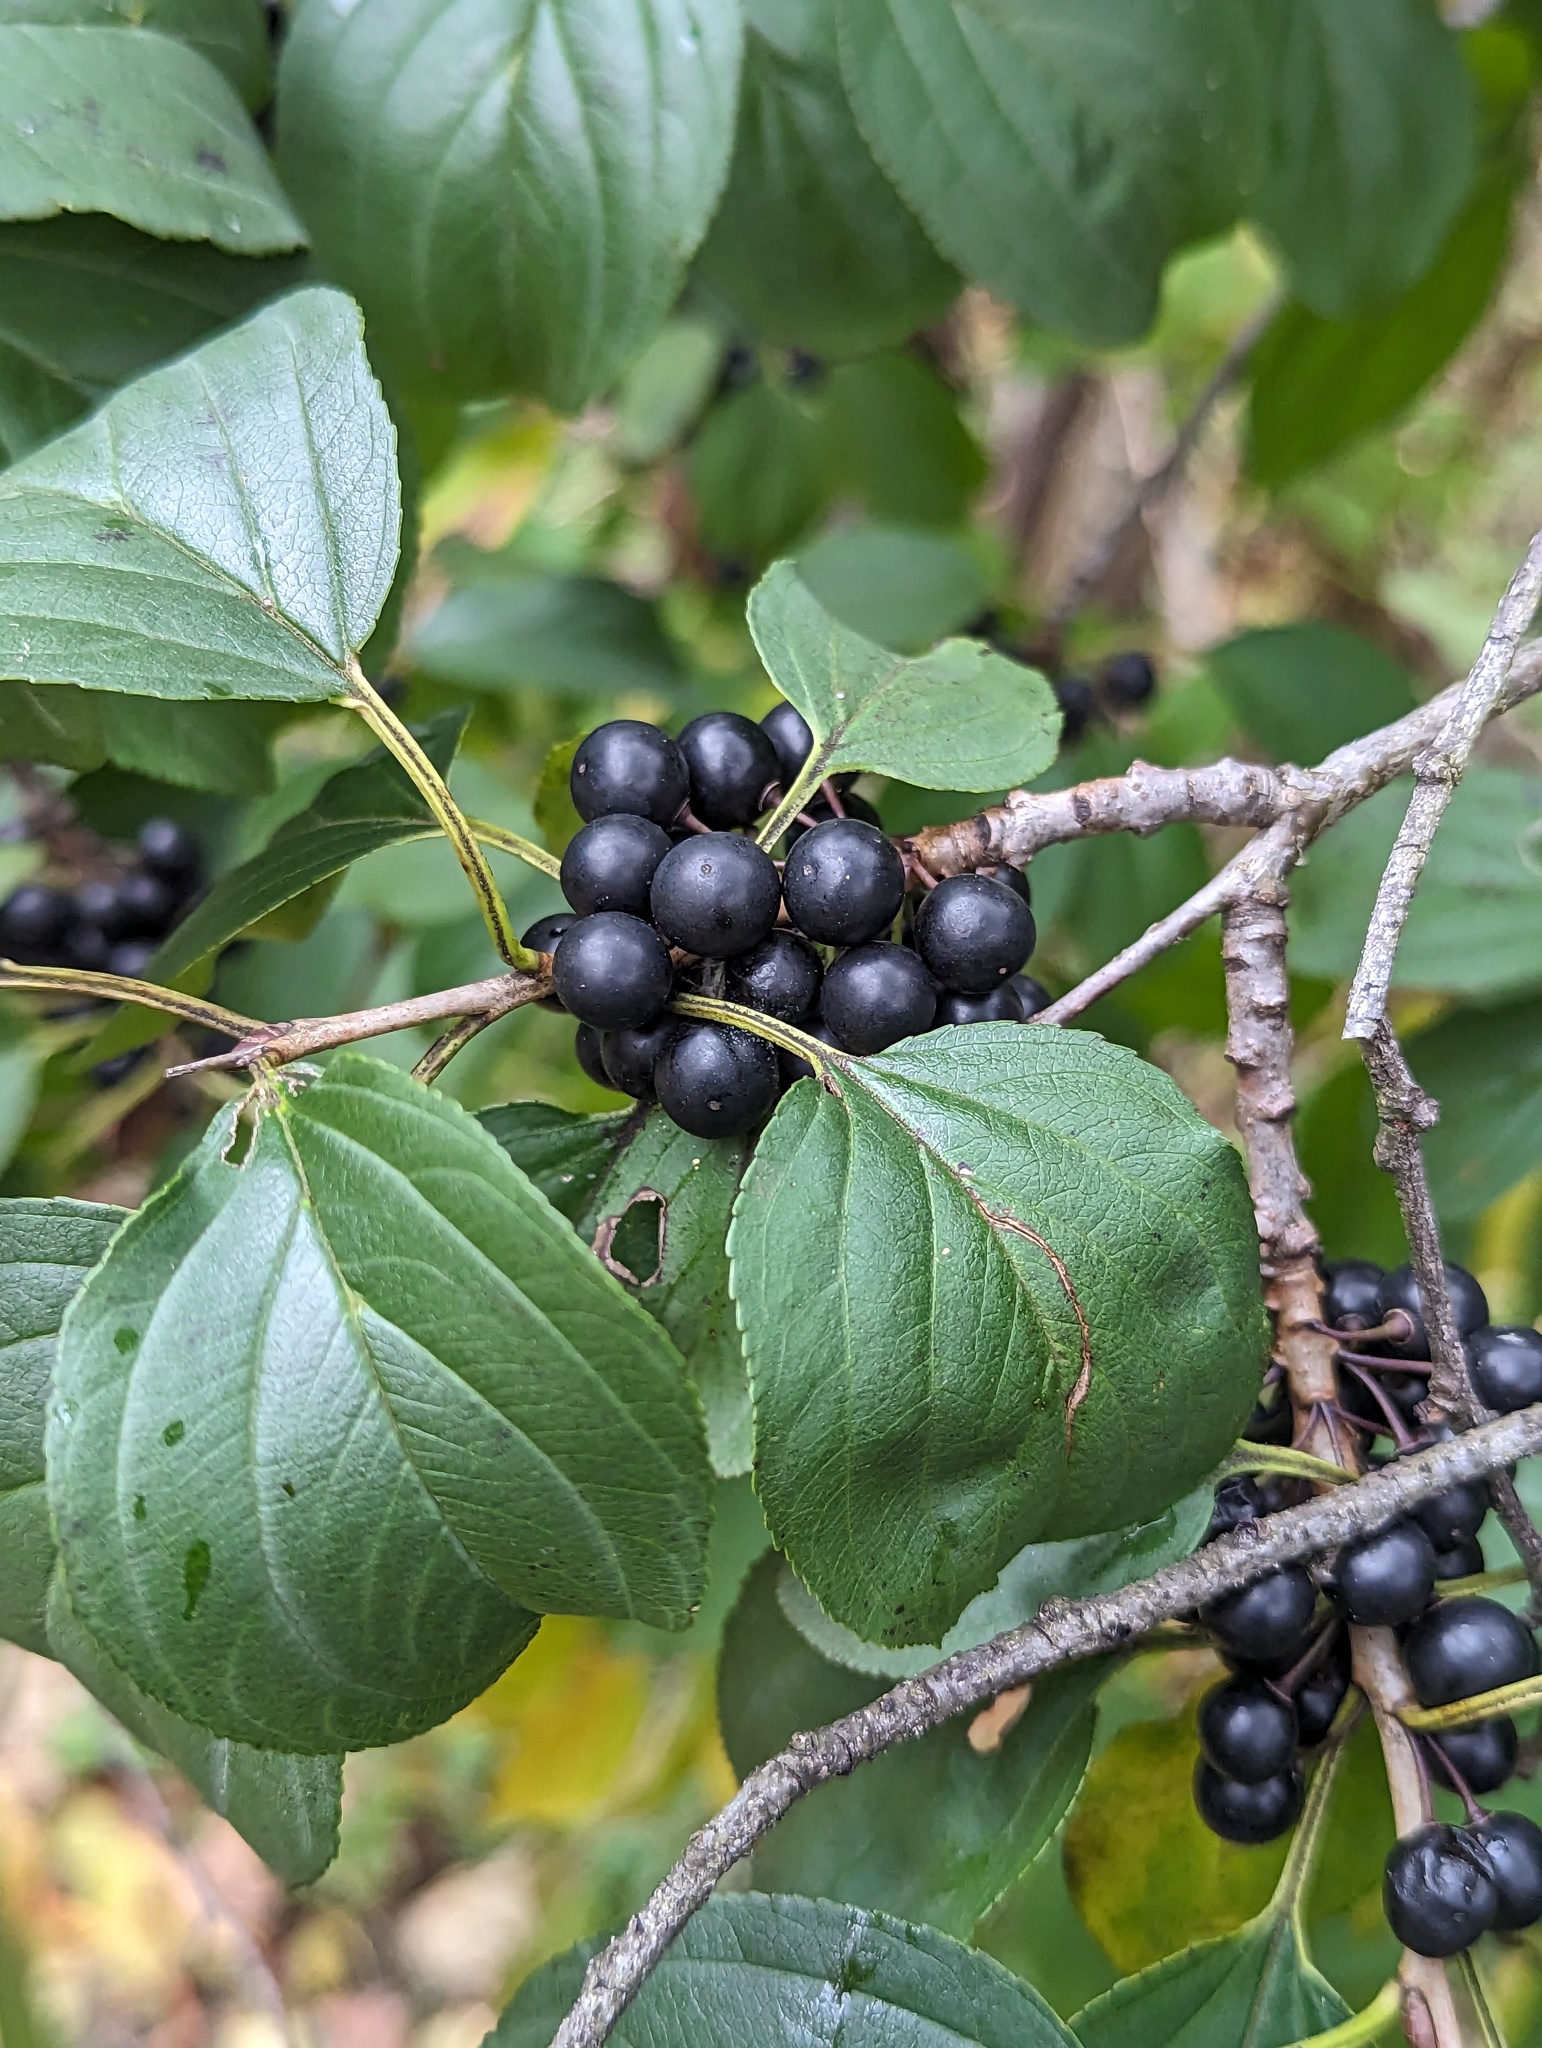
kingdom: Plantae
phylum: Tracheophyta
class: Magnoliopsida
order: Rosales
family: Rhamnaceae
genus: Rhamnus
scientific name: Rhamnus cathartica
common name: Common buckthorn
